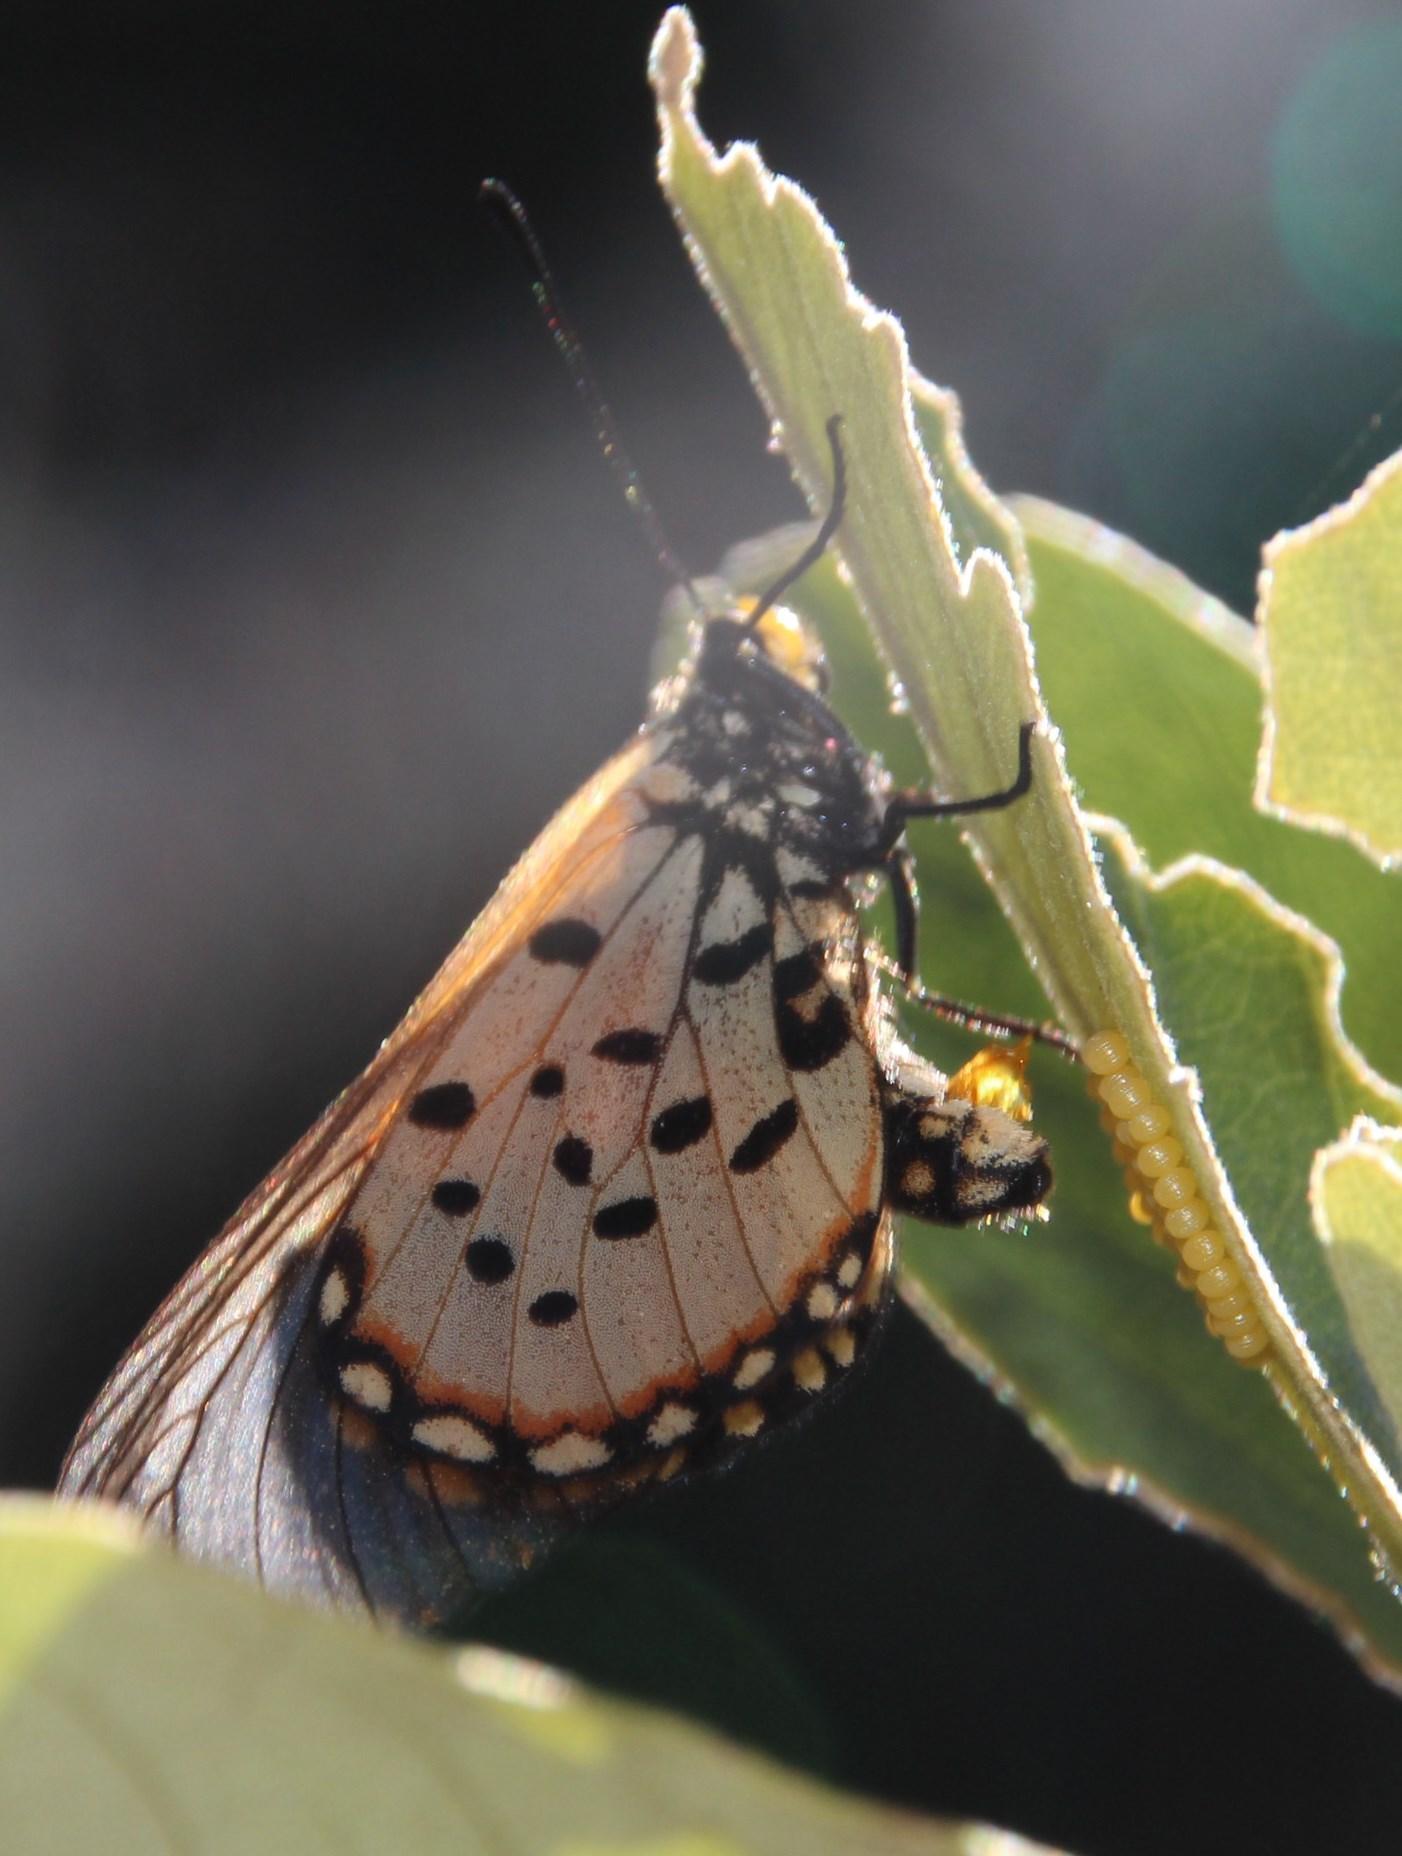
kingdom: Animalia
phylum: Arthropoda
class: Insecta
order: Lepidoptera
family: Nymphalidae
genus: Acraea
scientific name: Acraea horta
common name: Garden acraea
